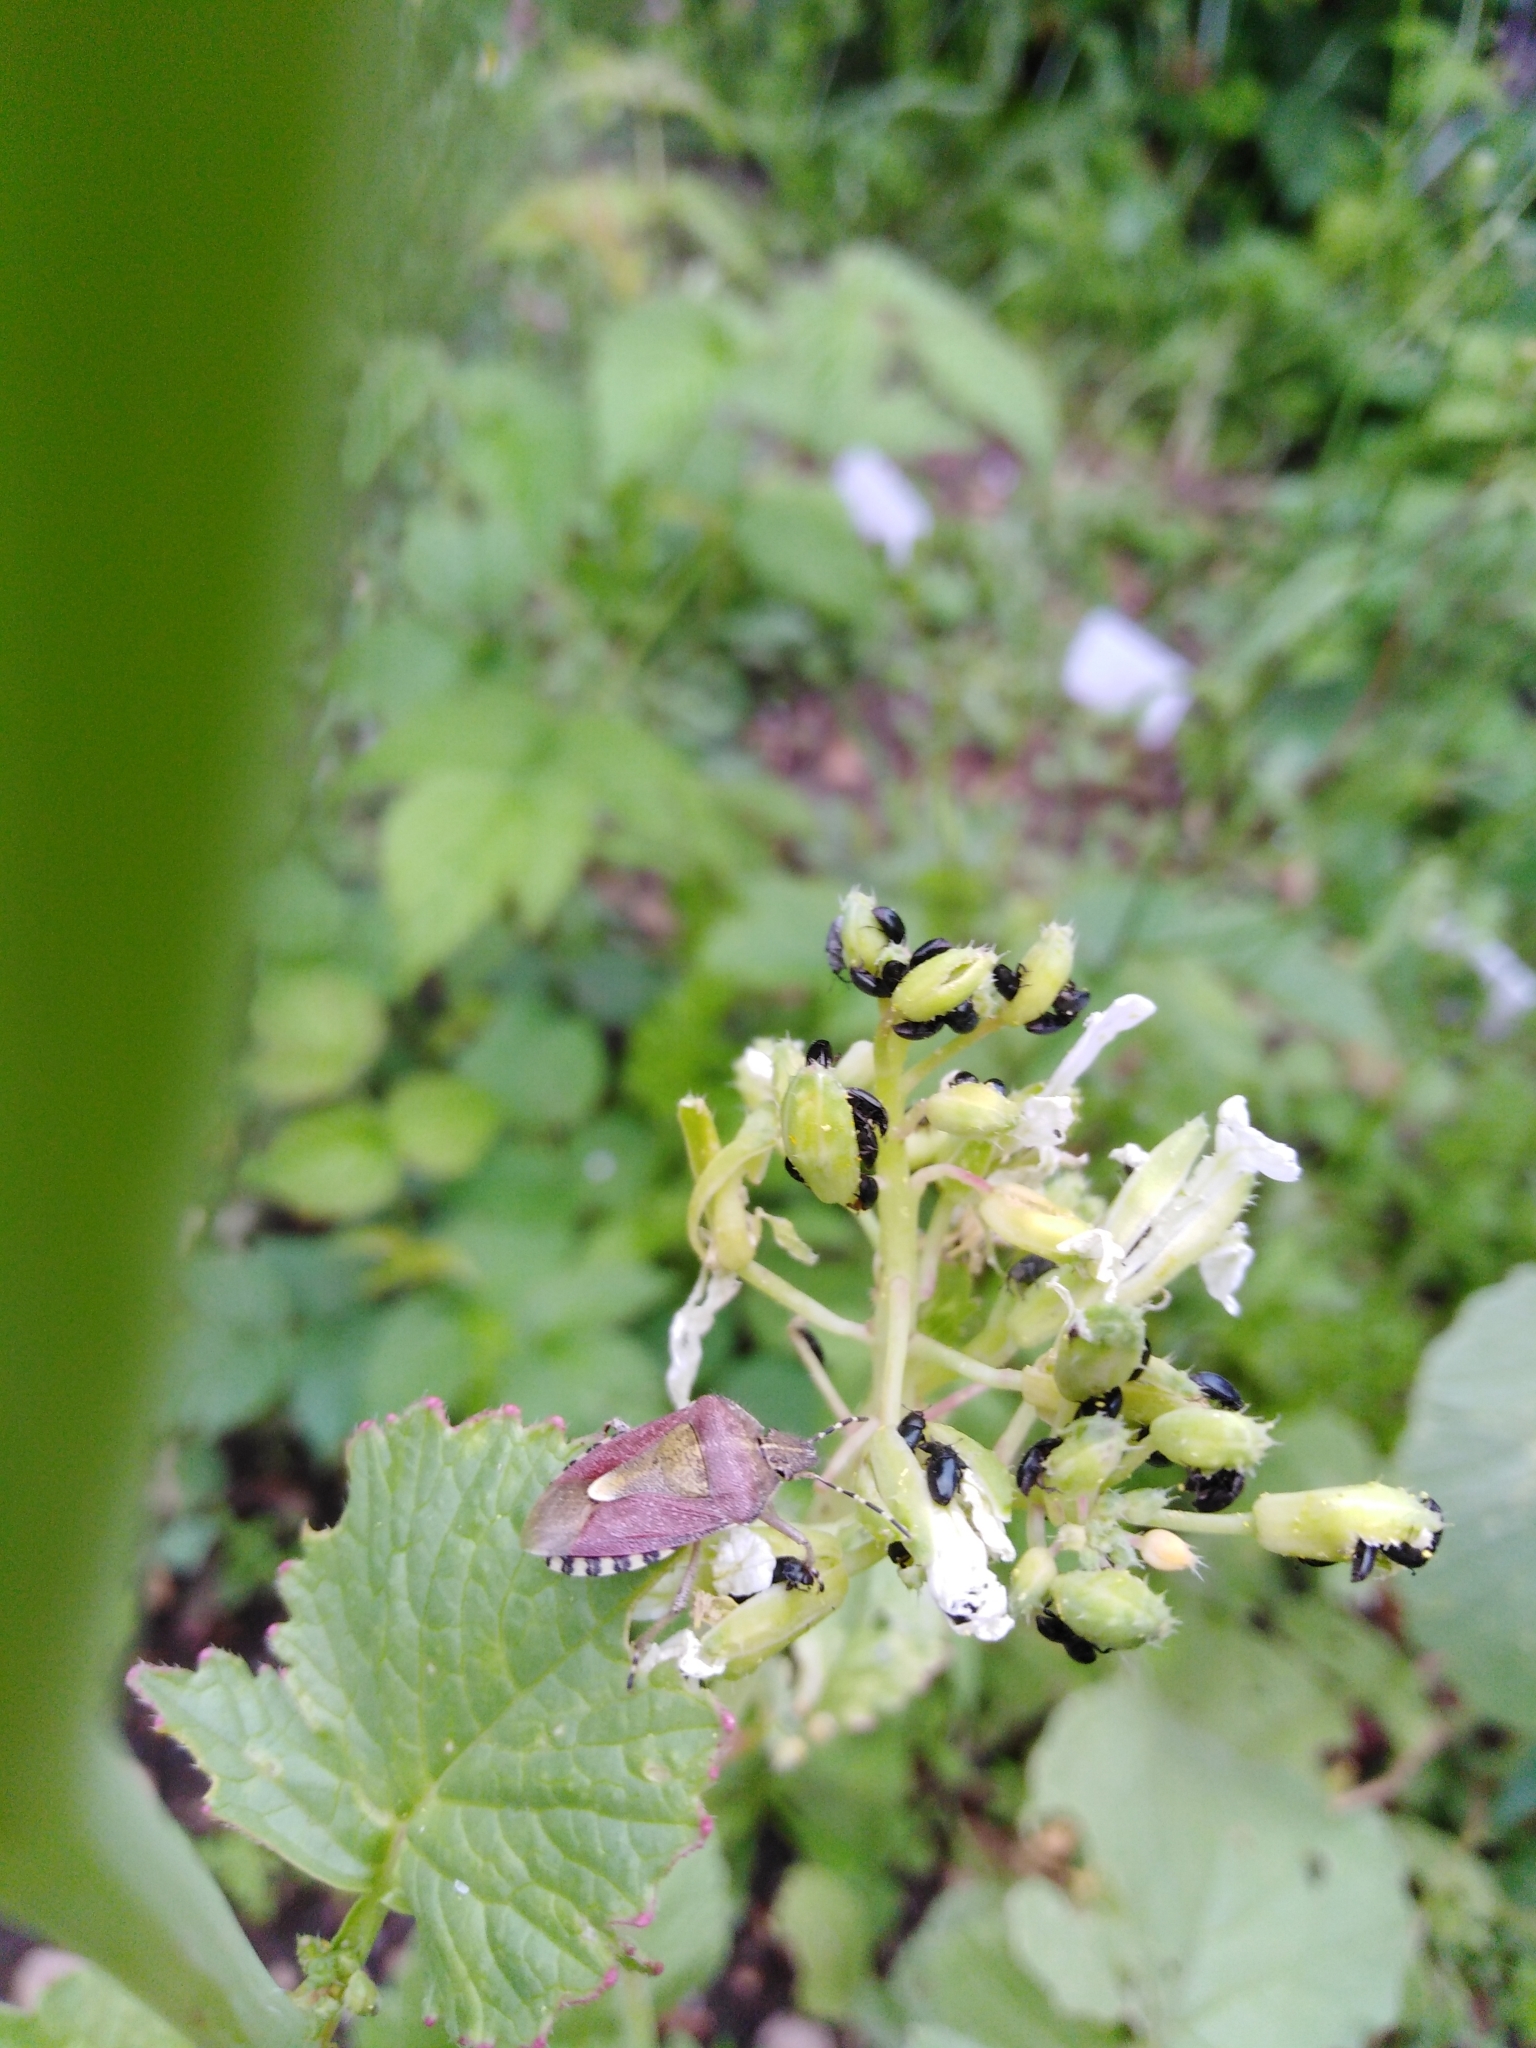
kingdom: Animalia
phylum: Arthropoda
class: Insecta
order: Hemiptera
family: Pentatomidae
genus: Dolycoris
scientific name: Dolycoris baccarum
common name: Sloe bug
